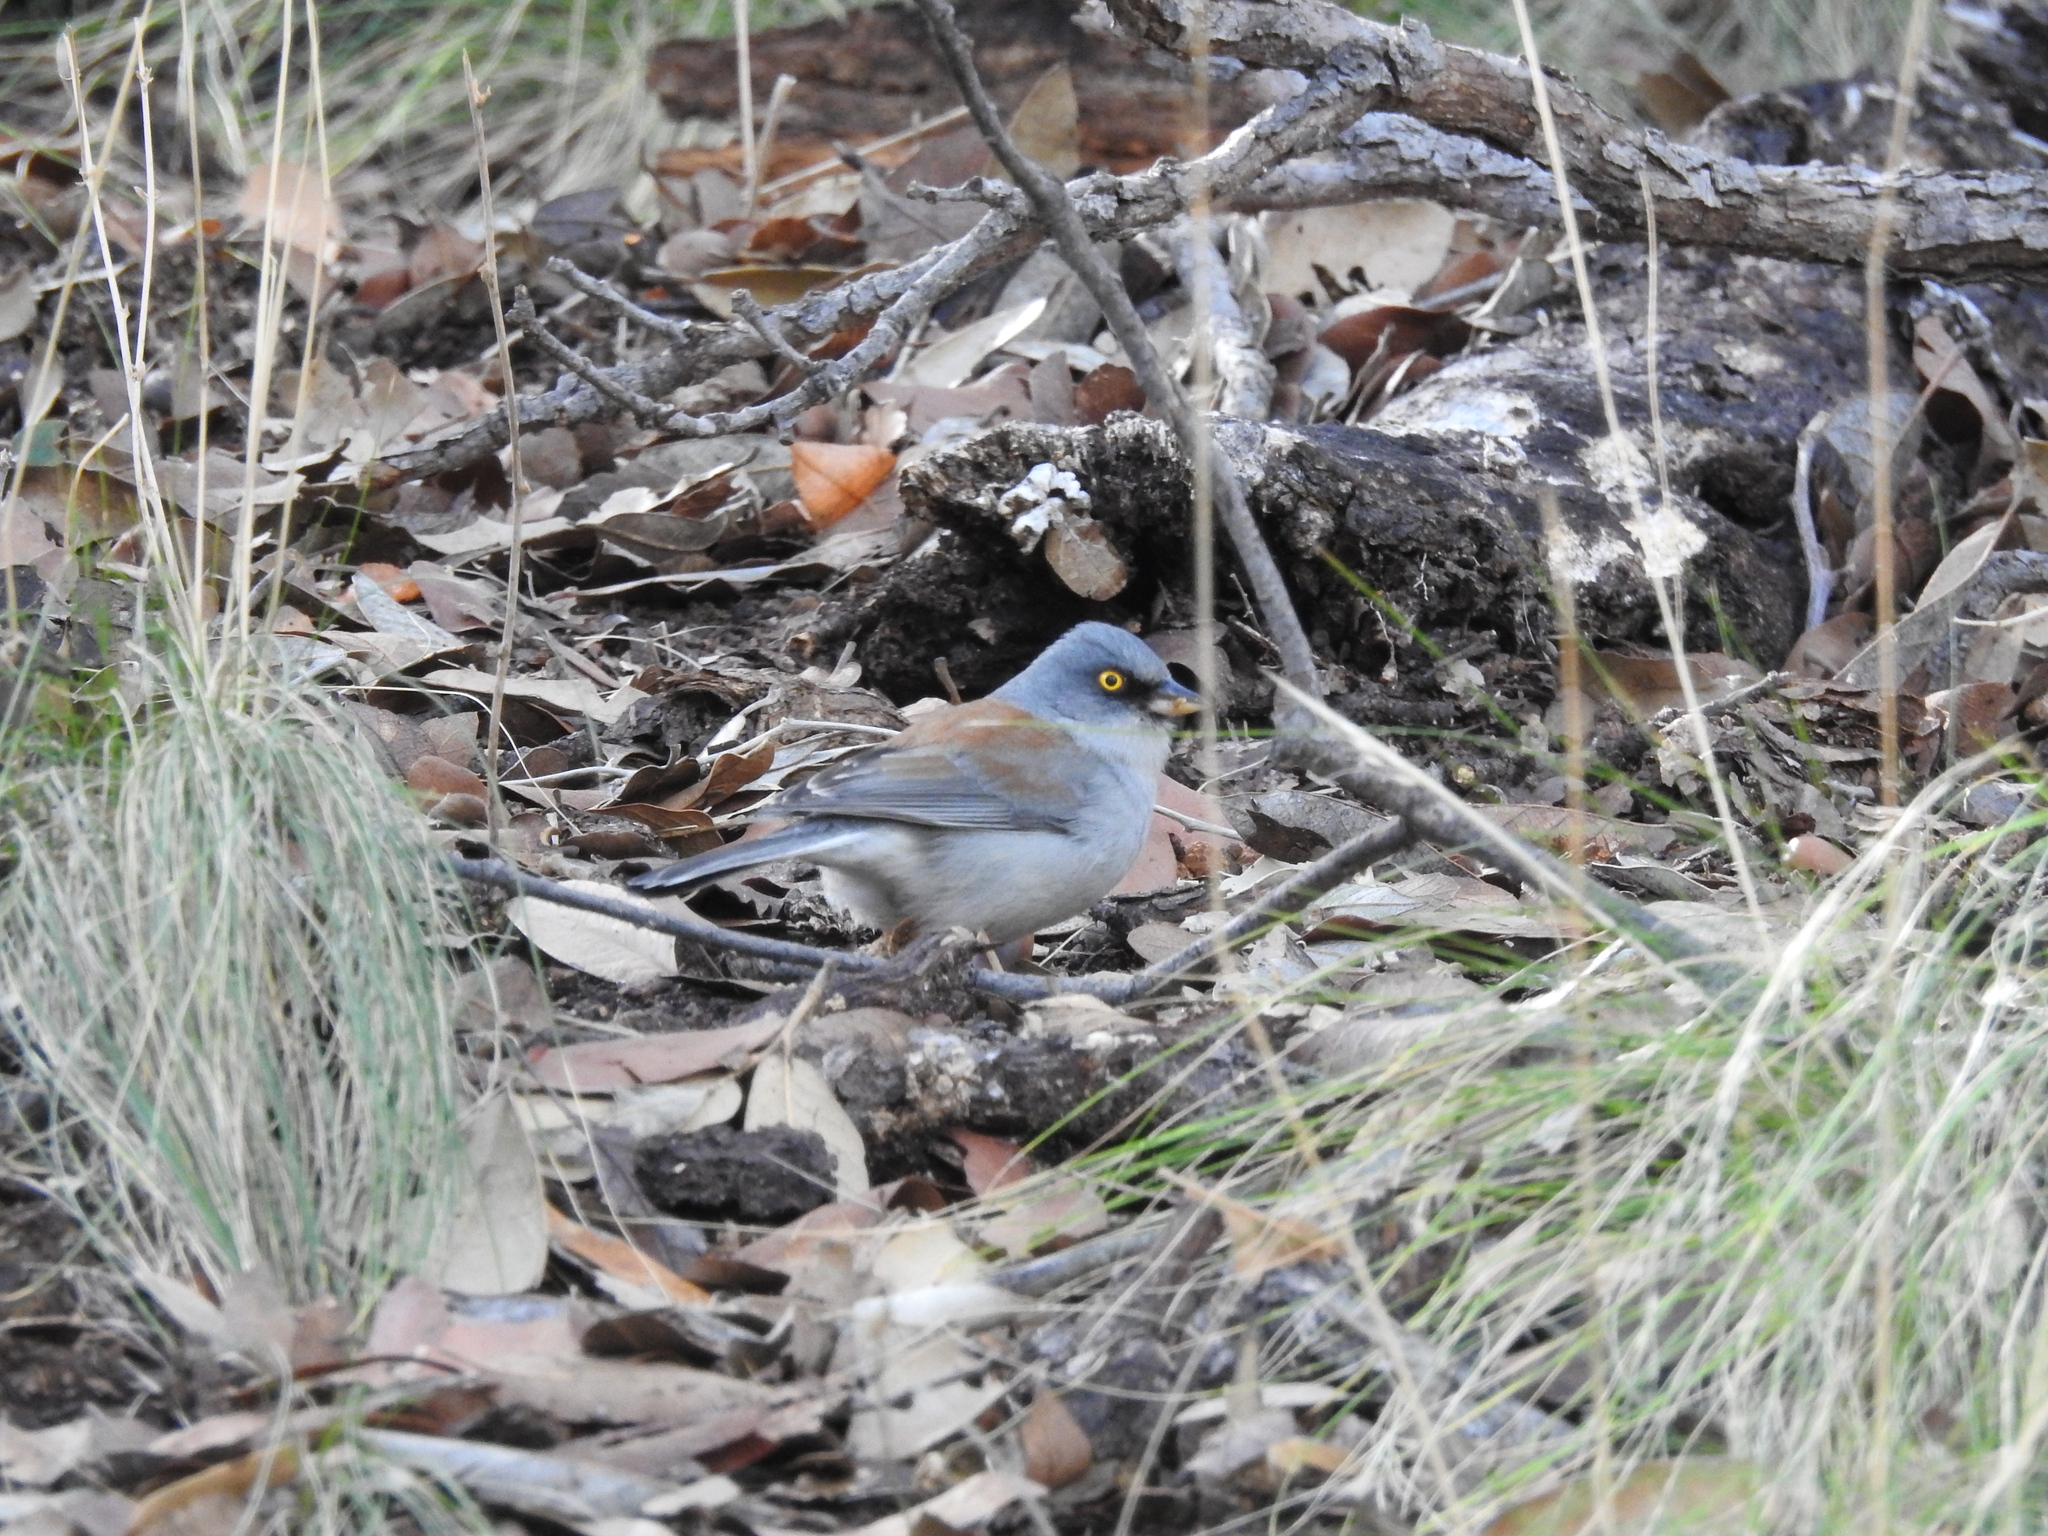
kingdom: Animalia
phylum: Chordata
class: Aves
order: Passeriformes
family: Passerellidae
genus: Junco
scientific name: Junco phaeonotus
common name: Yellow-eyed junco
